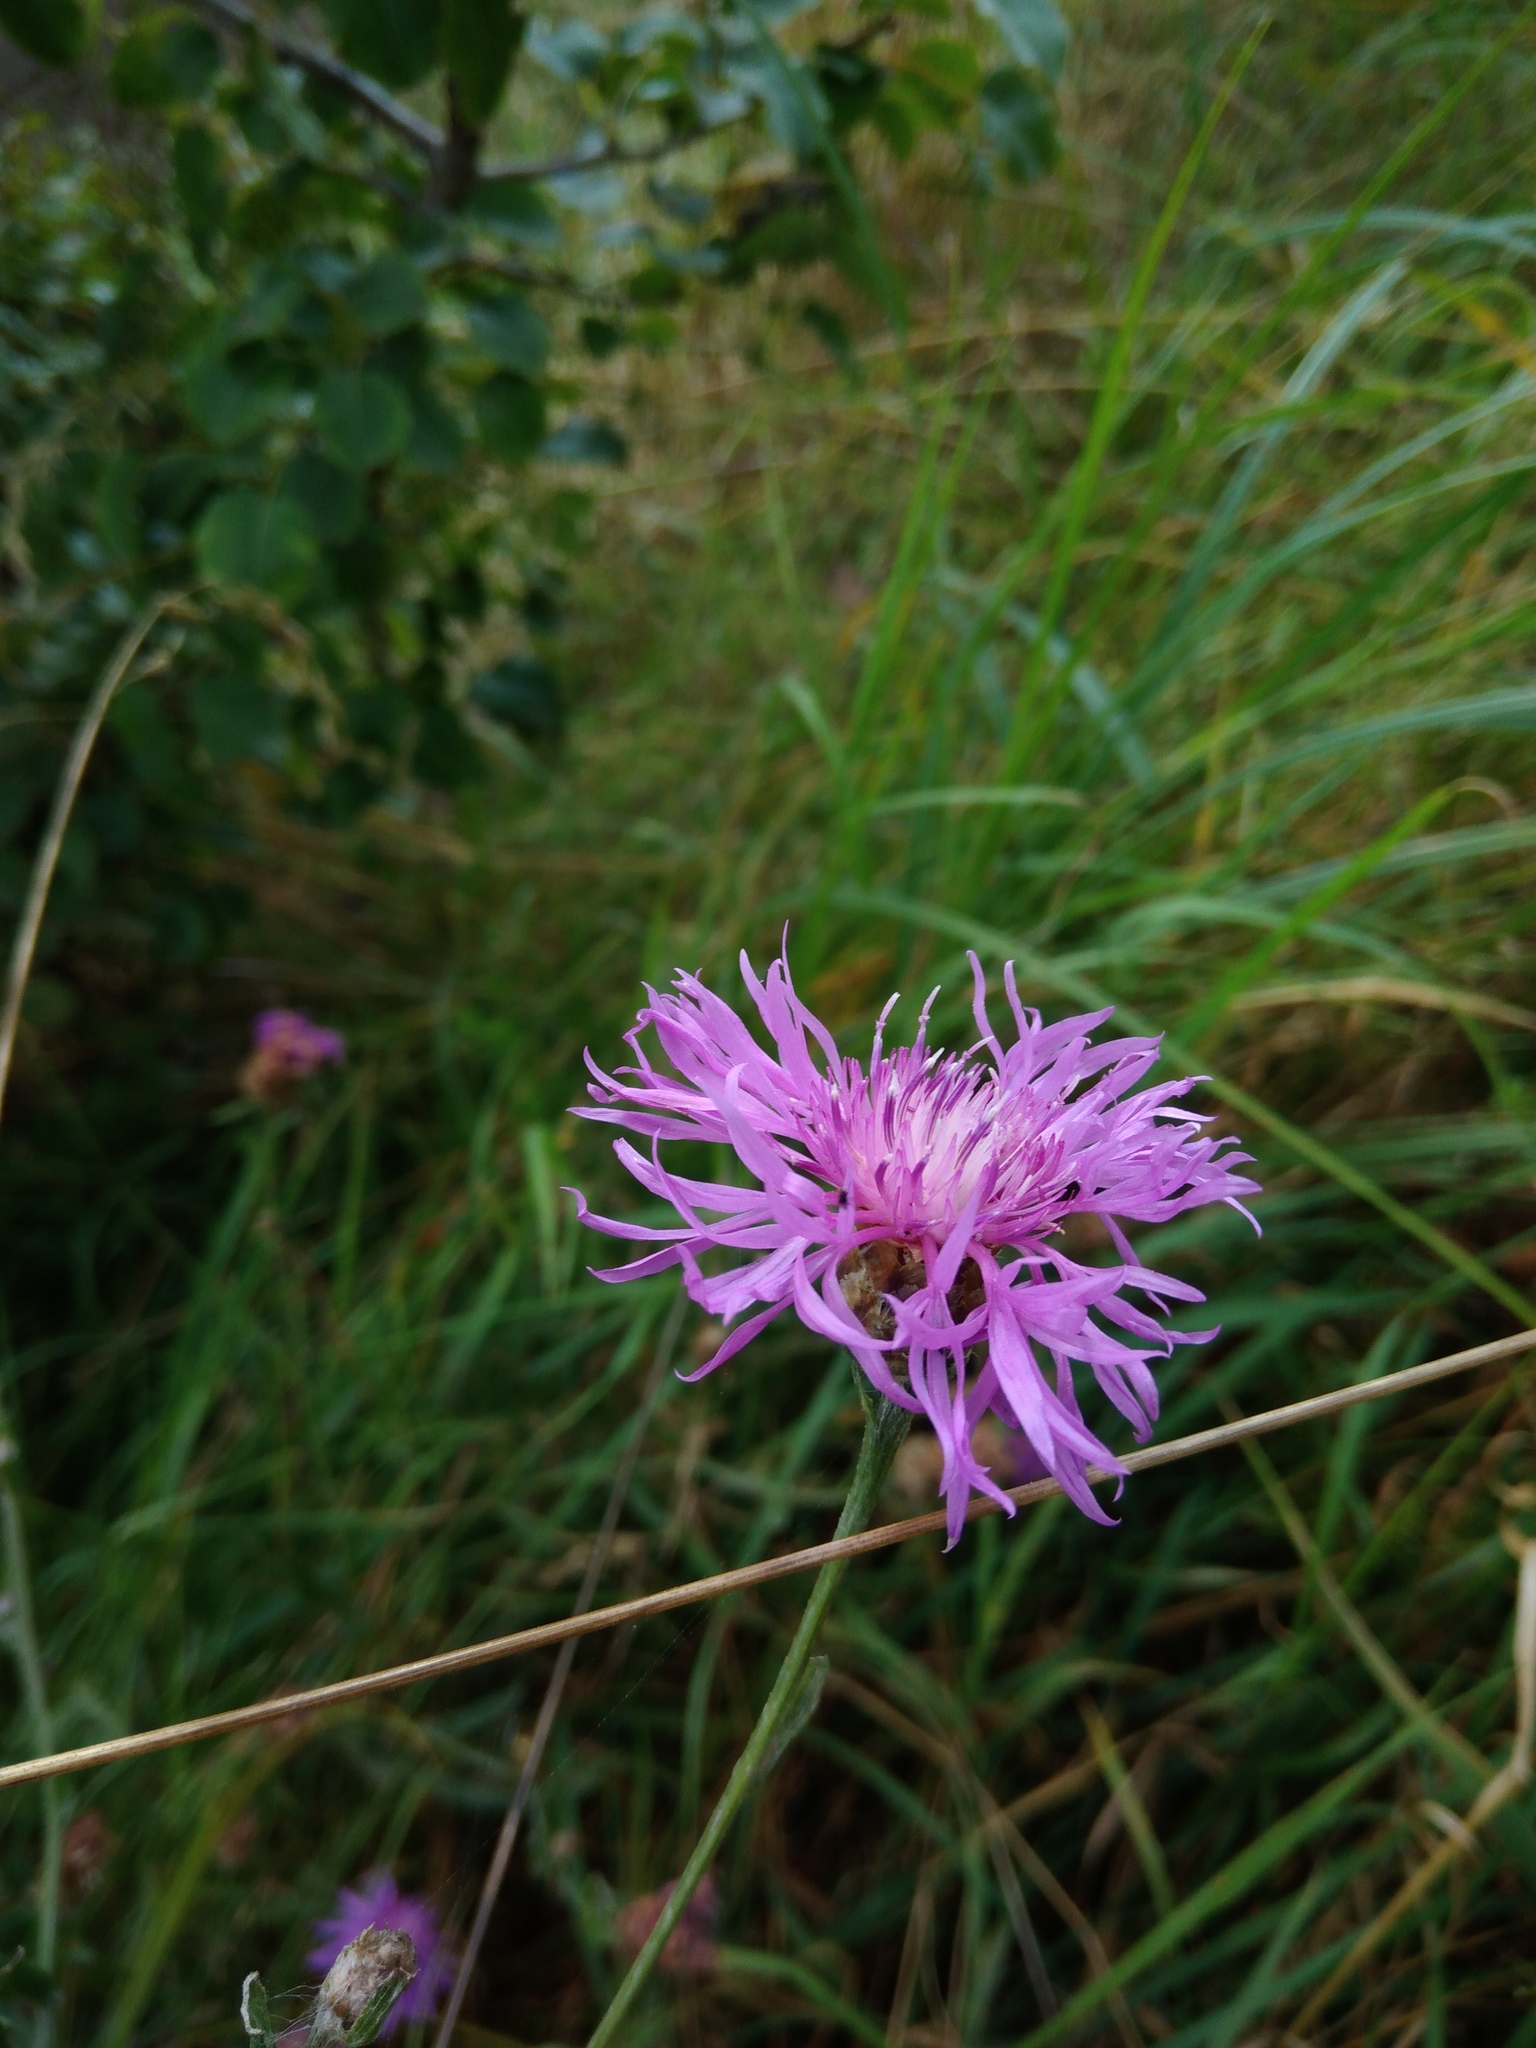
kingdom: Plantae
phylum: Tracheophyta
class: Magnoliopsida
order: Asterales
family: Asteraceae
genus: Centaurea
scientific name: Centaurea jacea
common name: Brown knapweed
